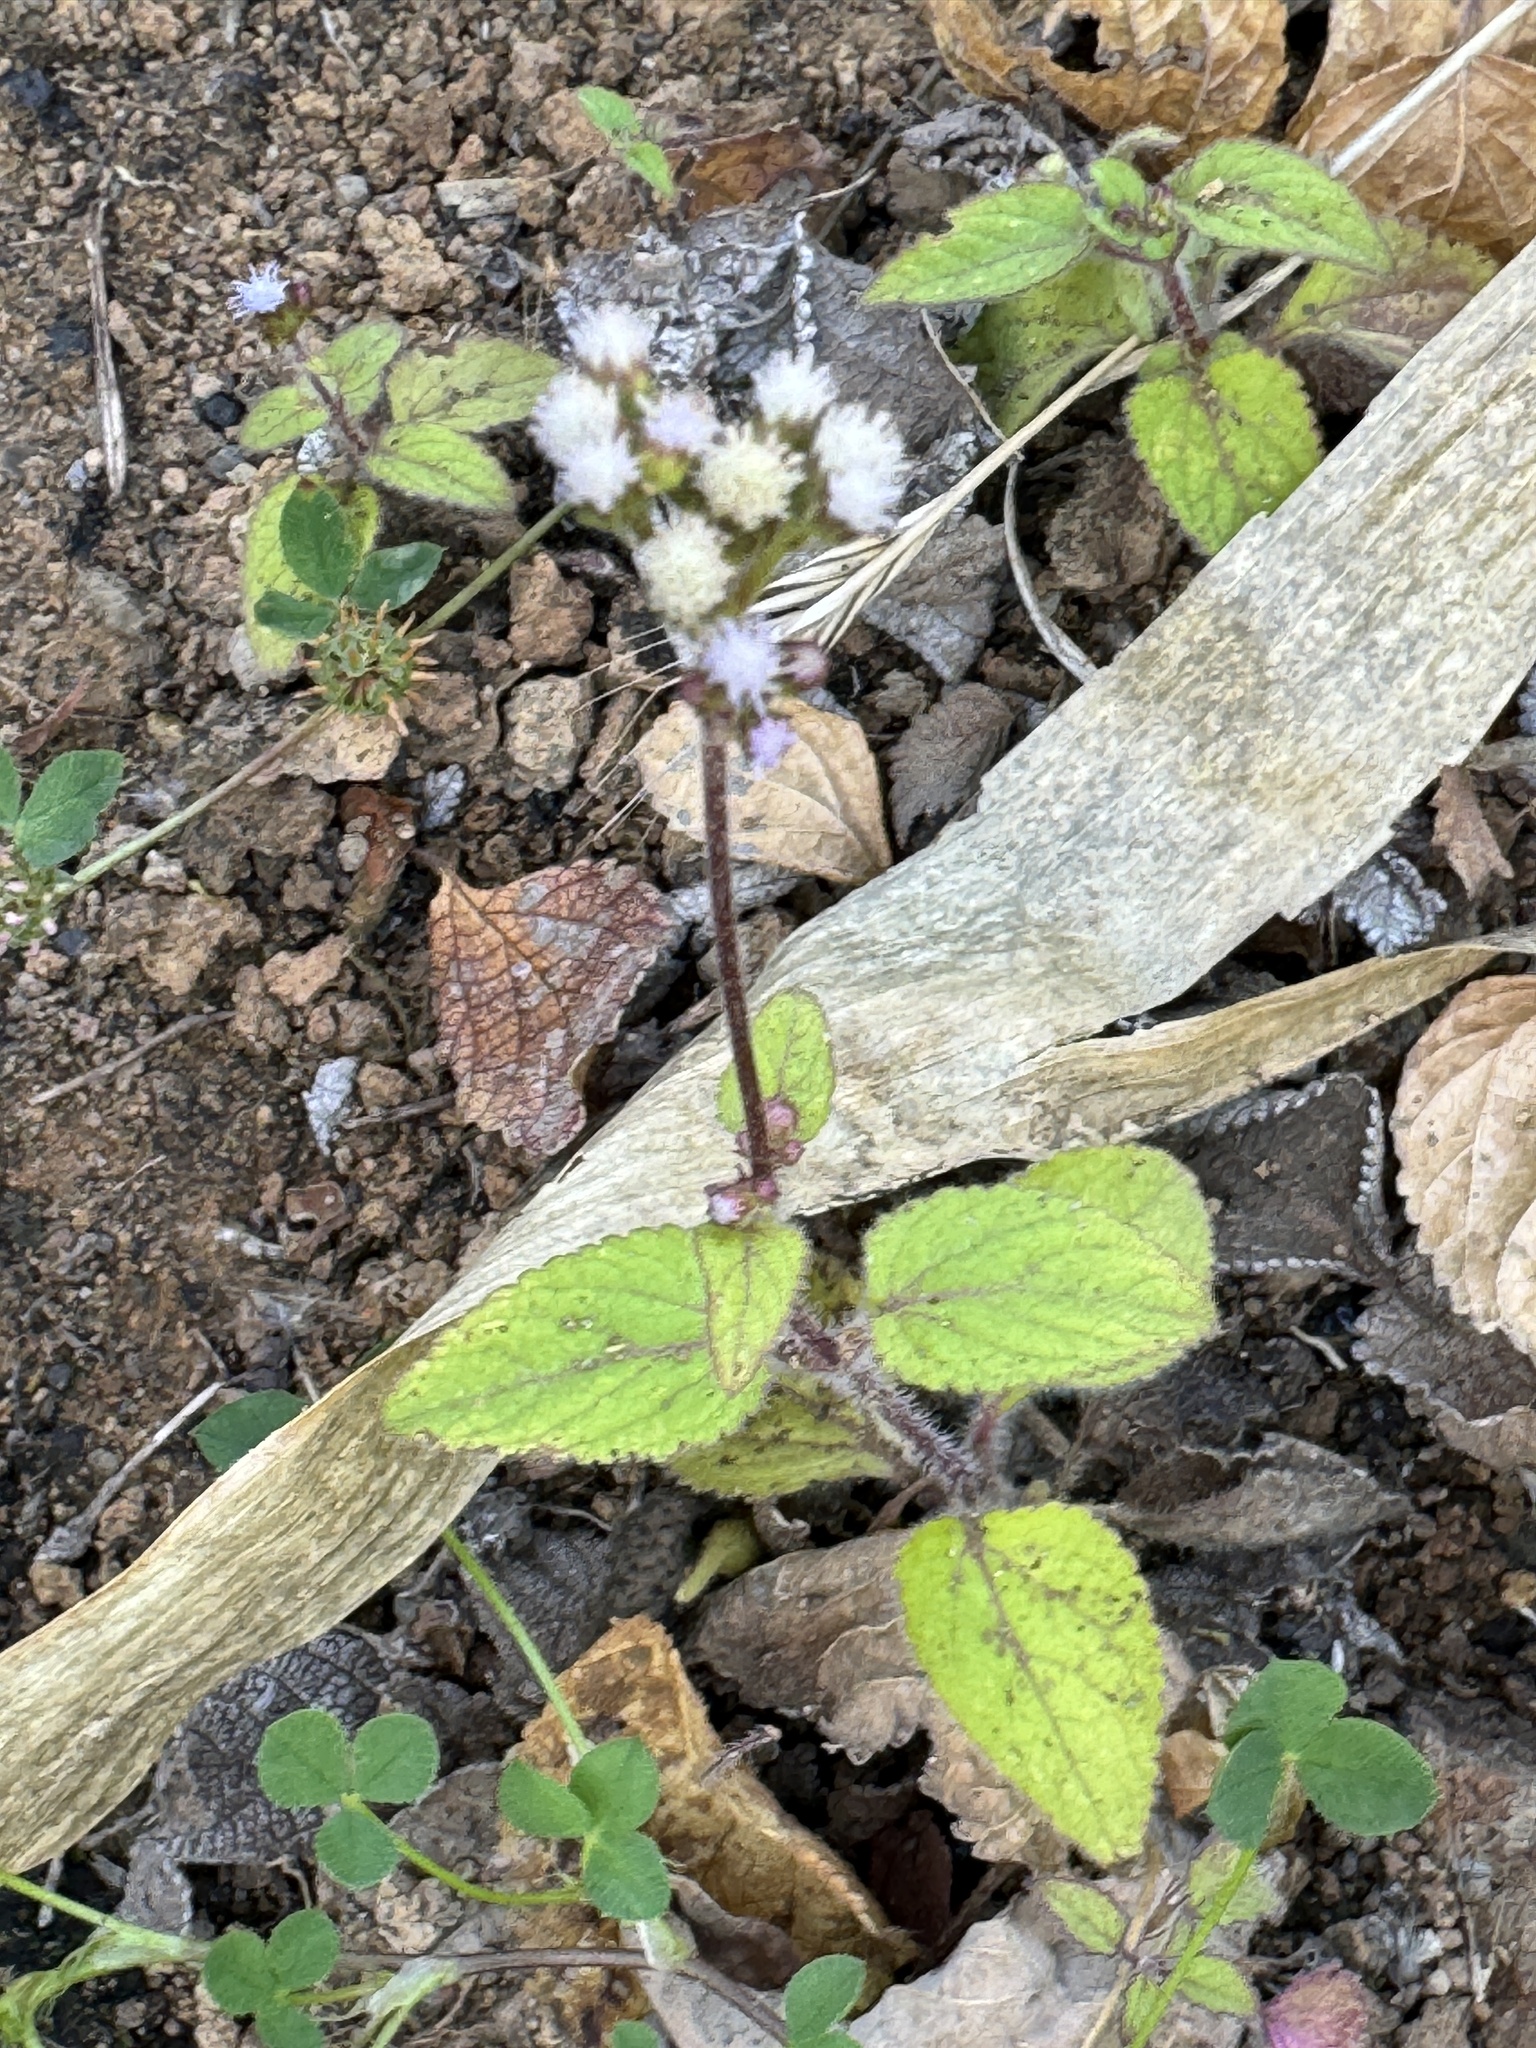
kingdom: Plantae
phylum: Tracheophyta
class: Magnoliopsida
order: Asterales
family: Asteraceae
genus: Ageratum
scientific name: Ageratum conyzoides
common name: Tropical whiteweed
